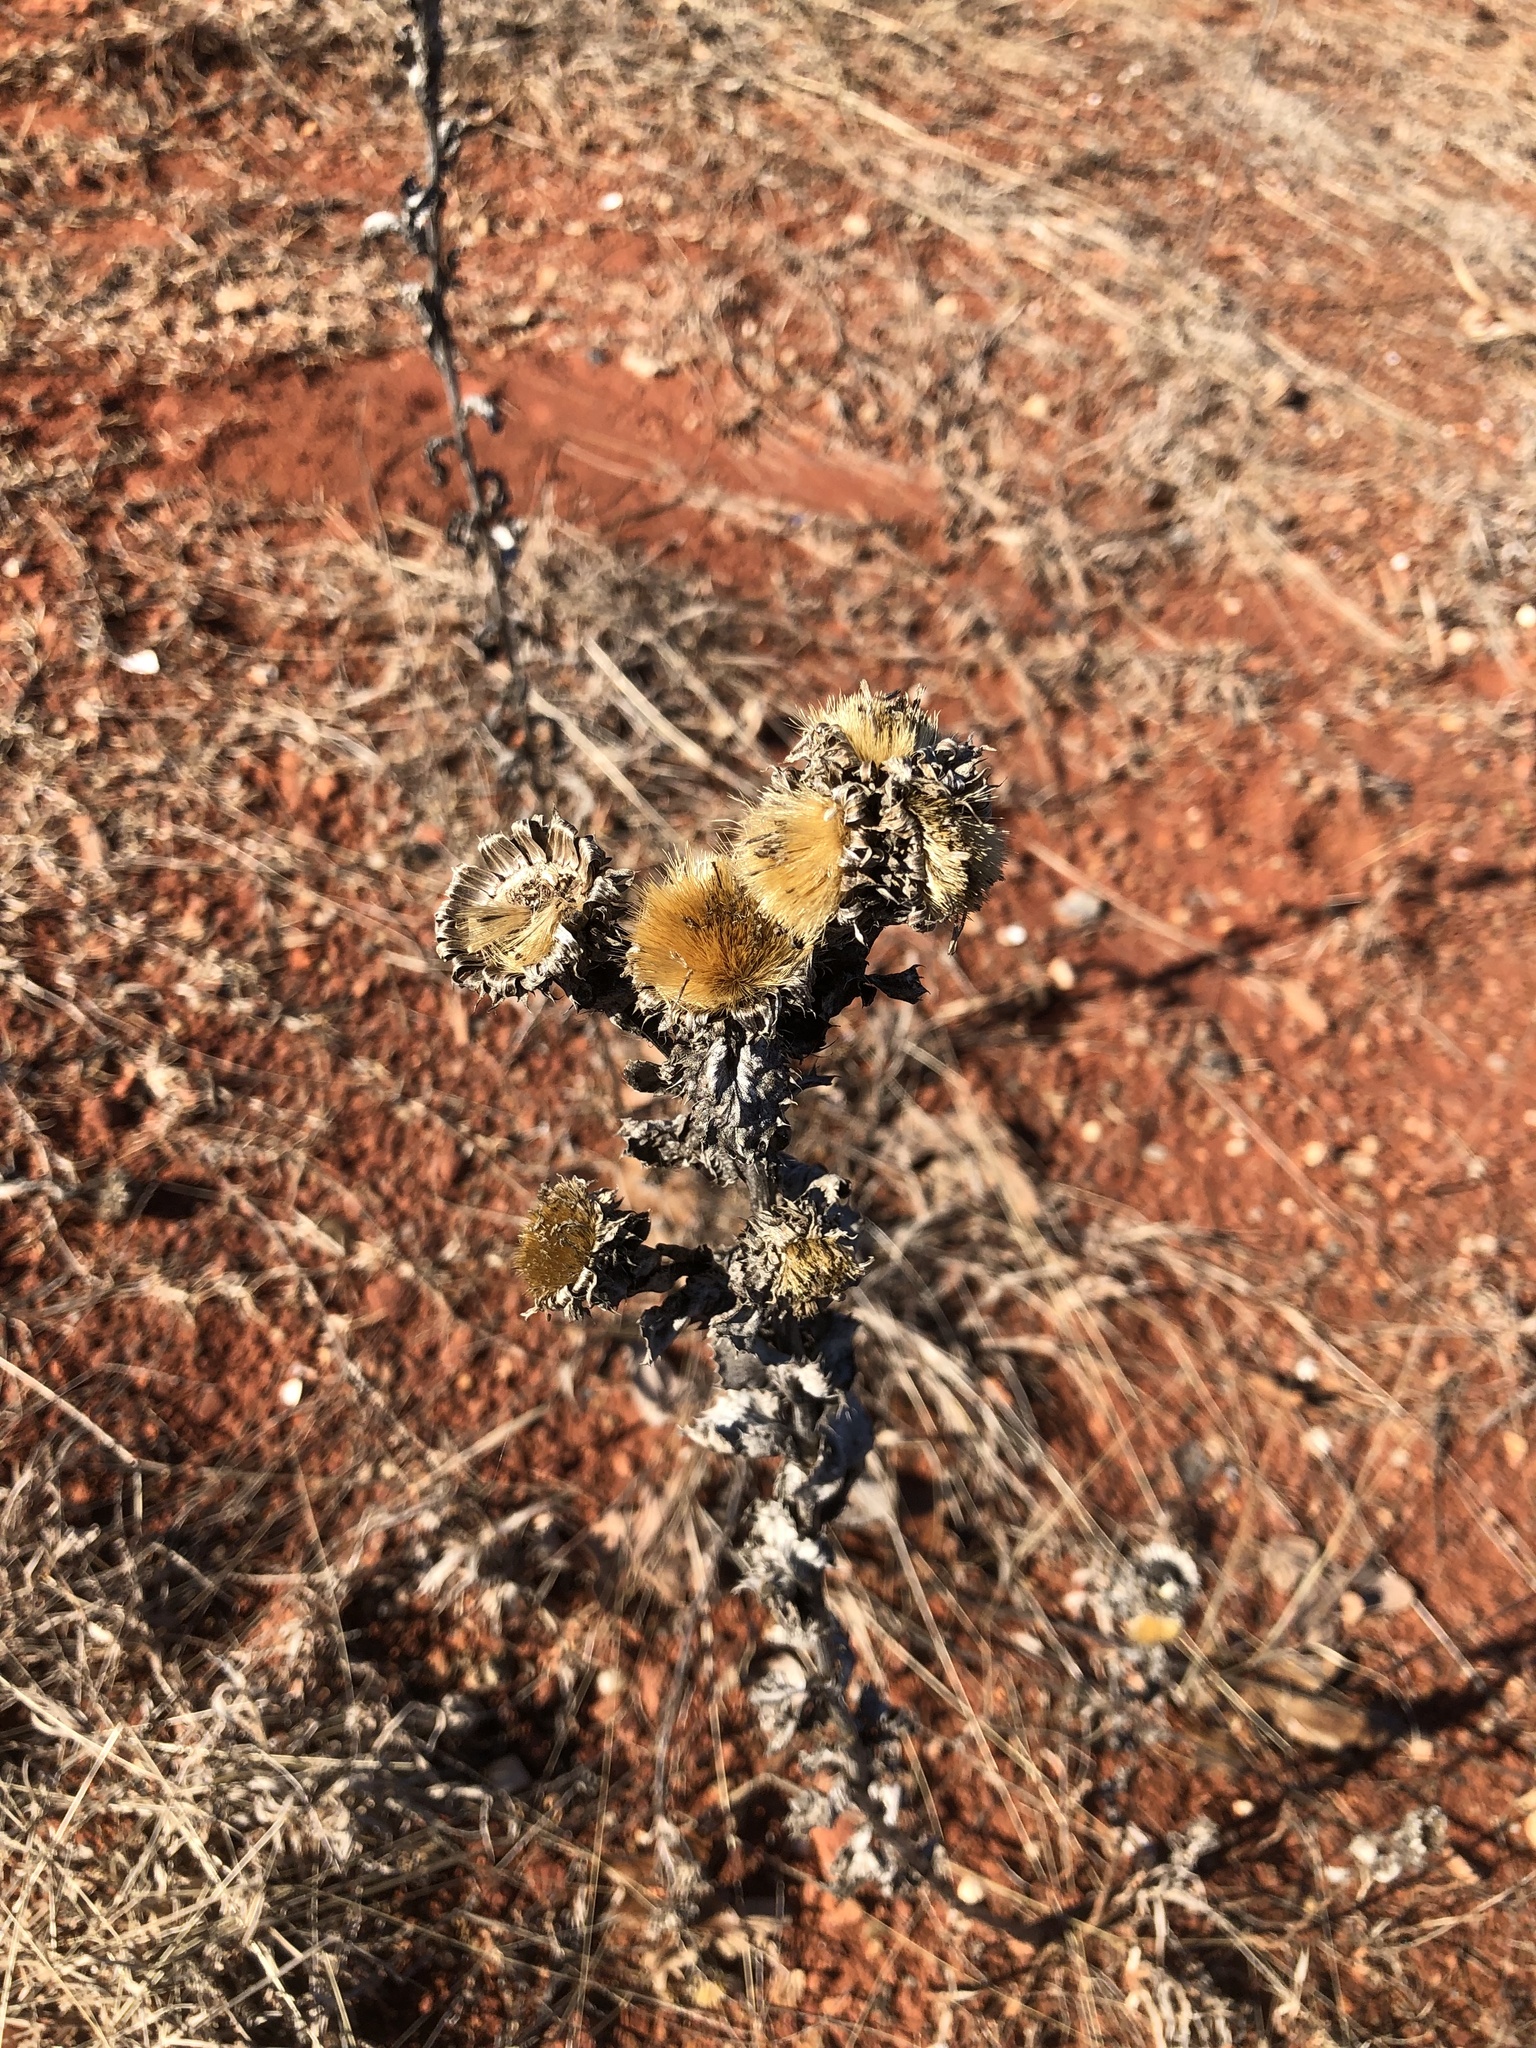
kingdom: Plantae
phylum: Tracheophyta
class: Magnoliopsida
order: Asterales
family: Asteraceae
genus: Grindelia
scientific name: Grindelia ciliata
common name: Goldenweed
